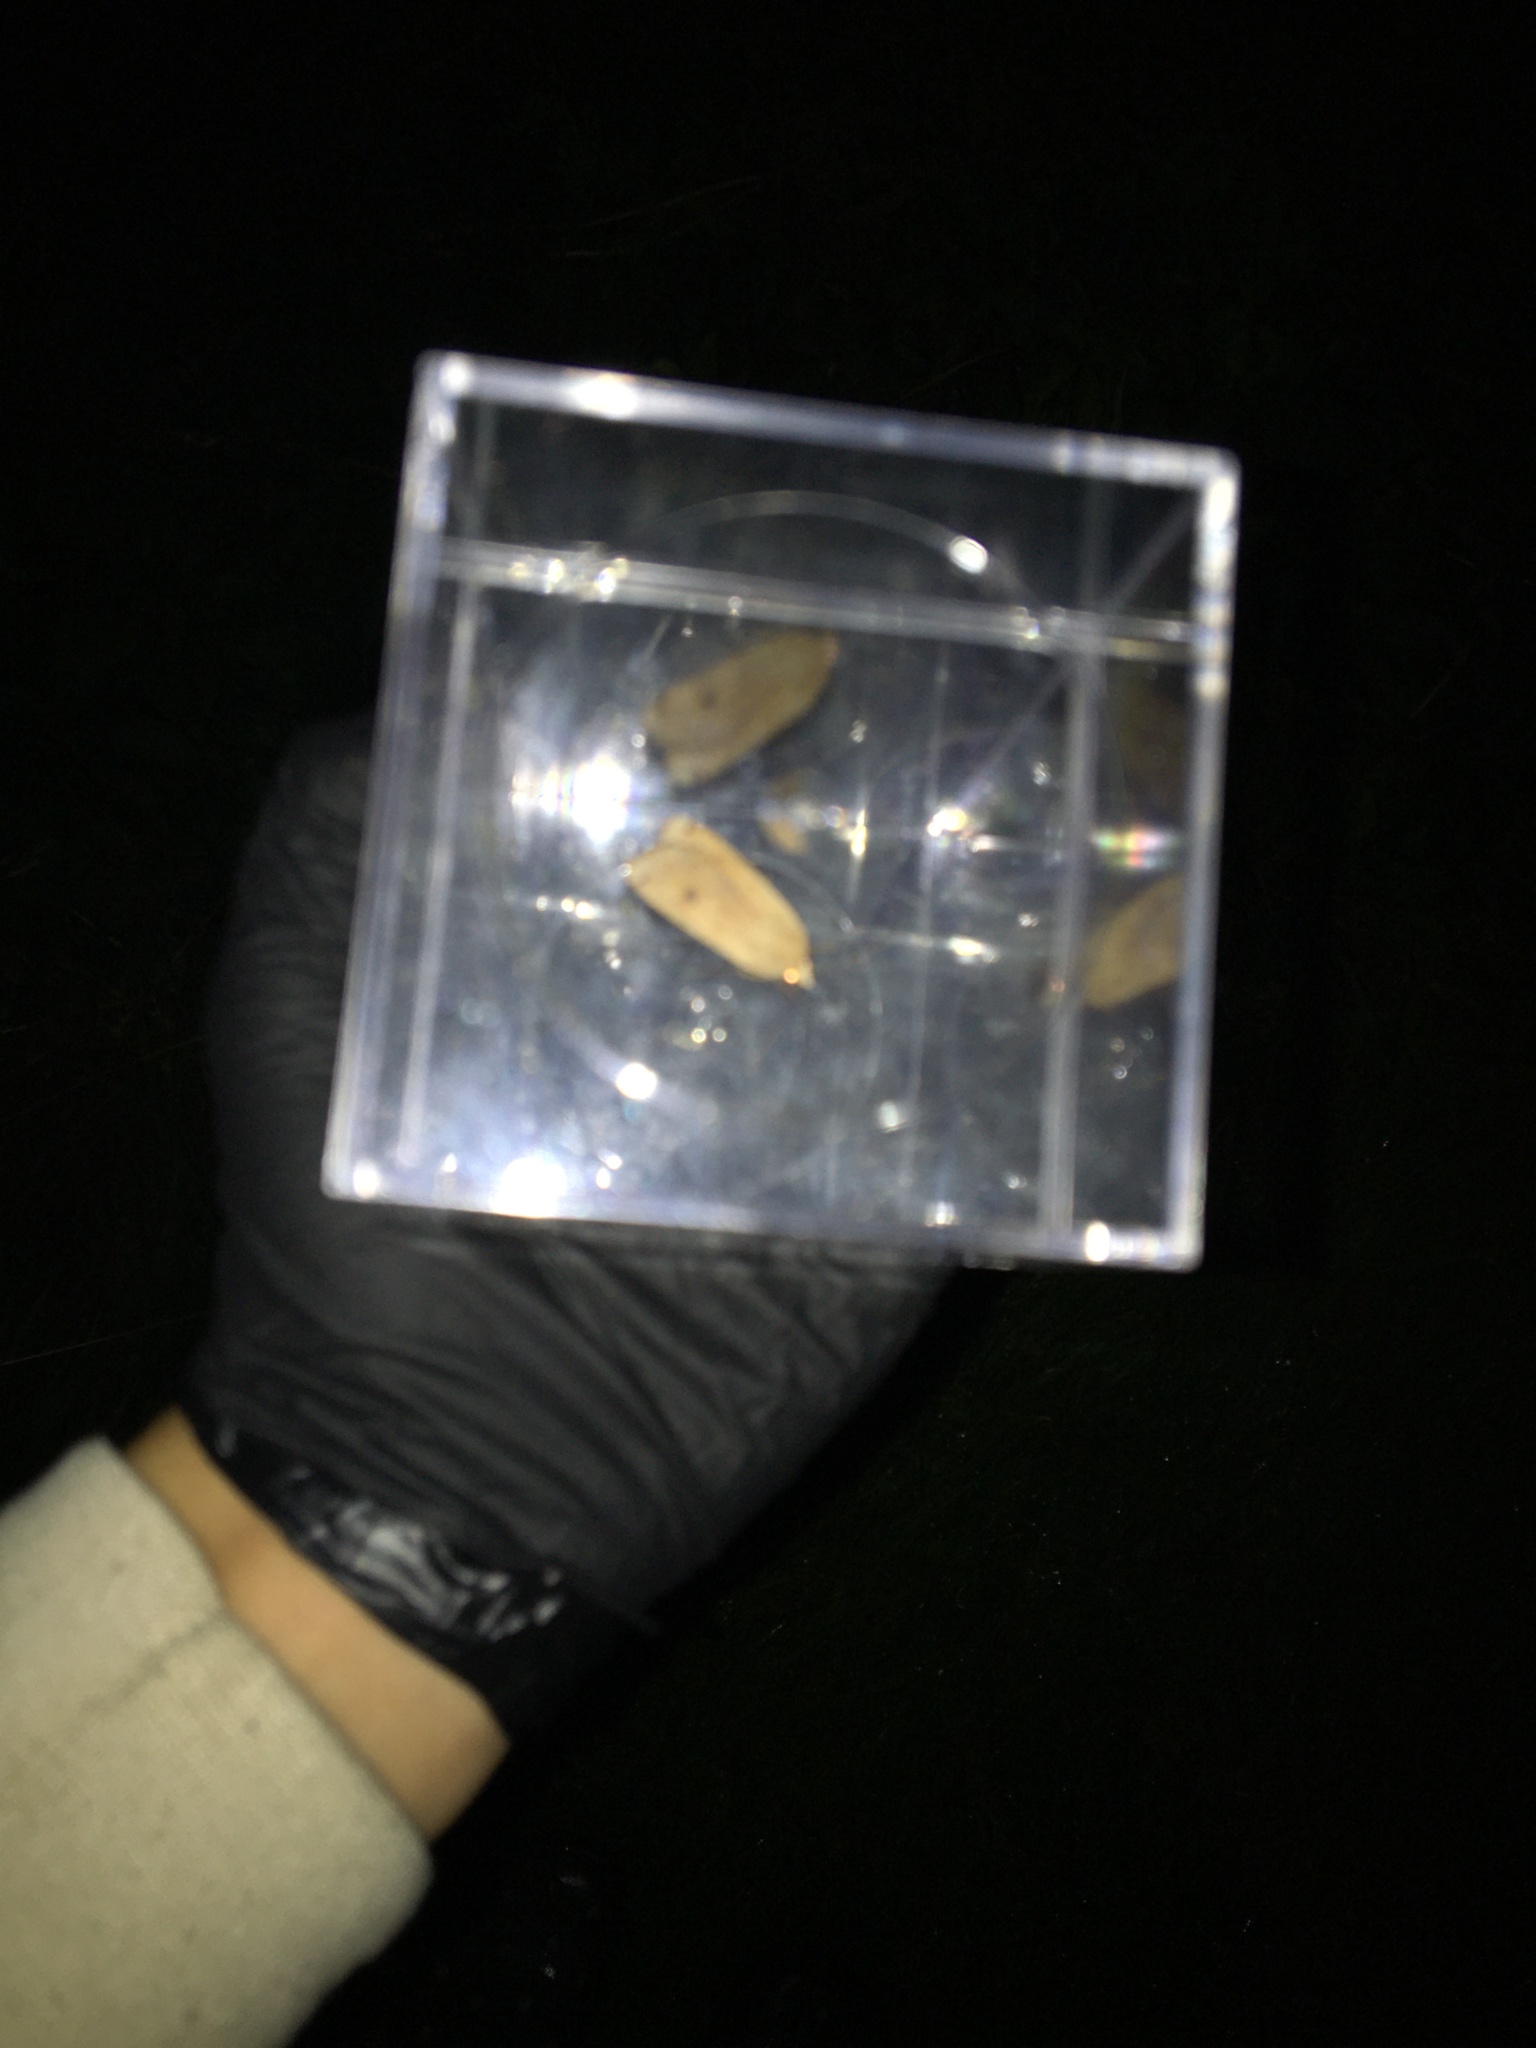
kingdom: Animalia
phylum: Arthropoda
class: Insecta
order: Lepidoptera
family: Noctuidae
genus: Noctua
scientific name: Noctua pronuba
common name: Large yellow underwing
